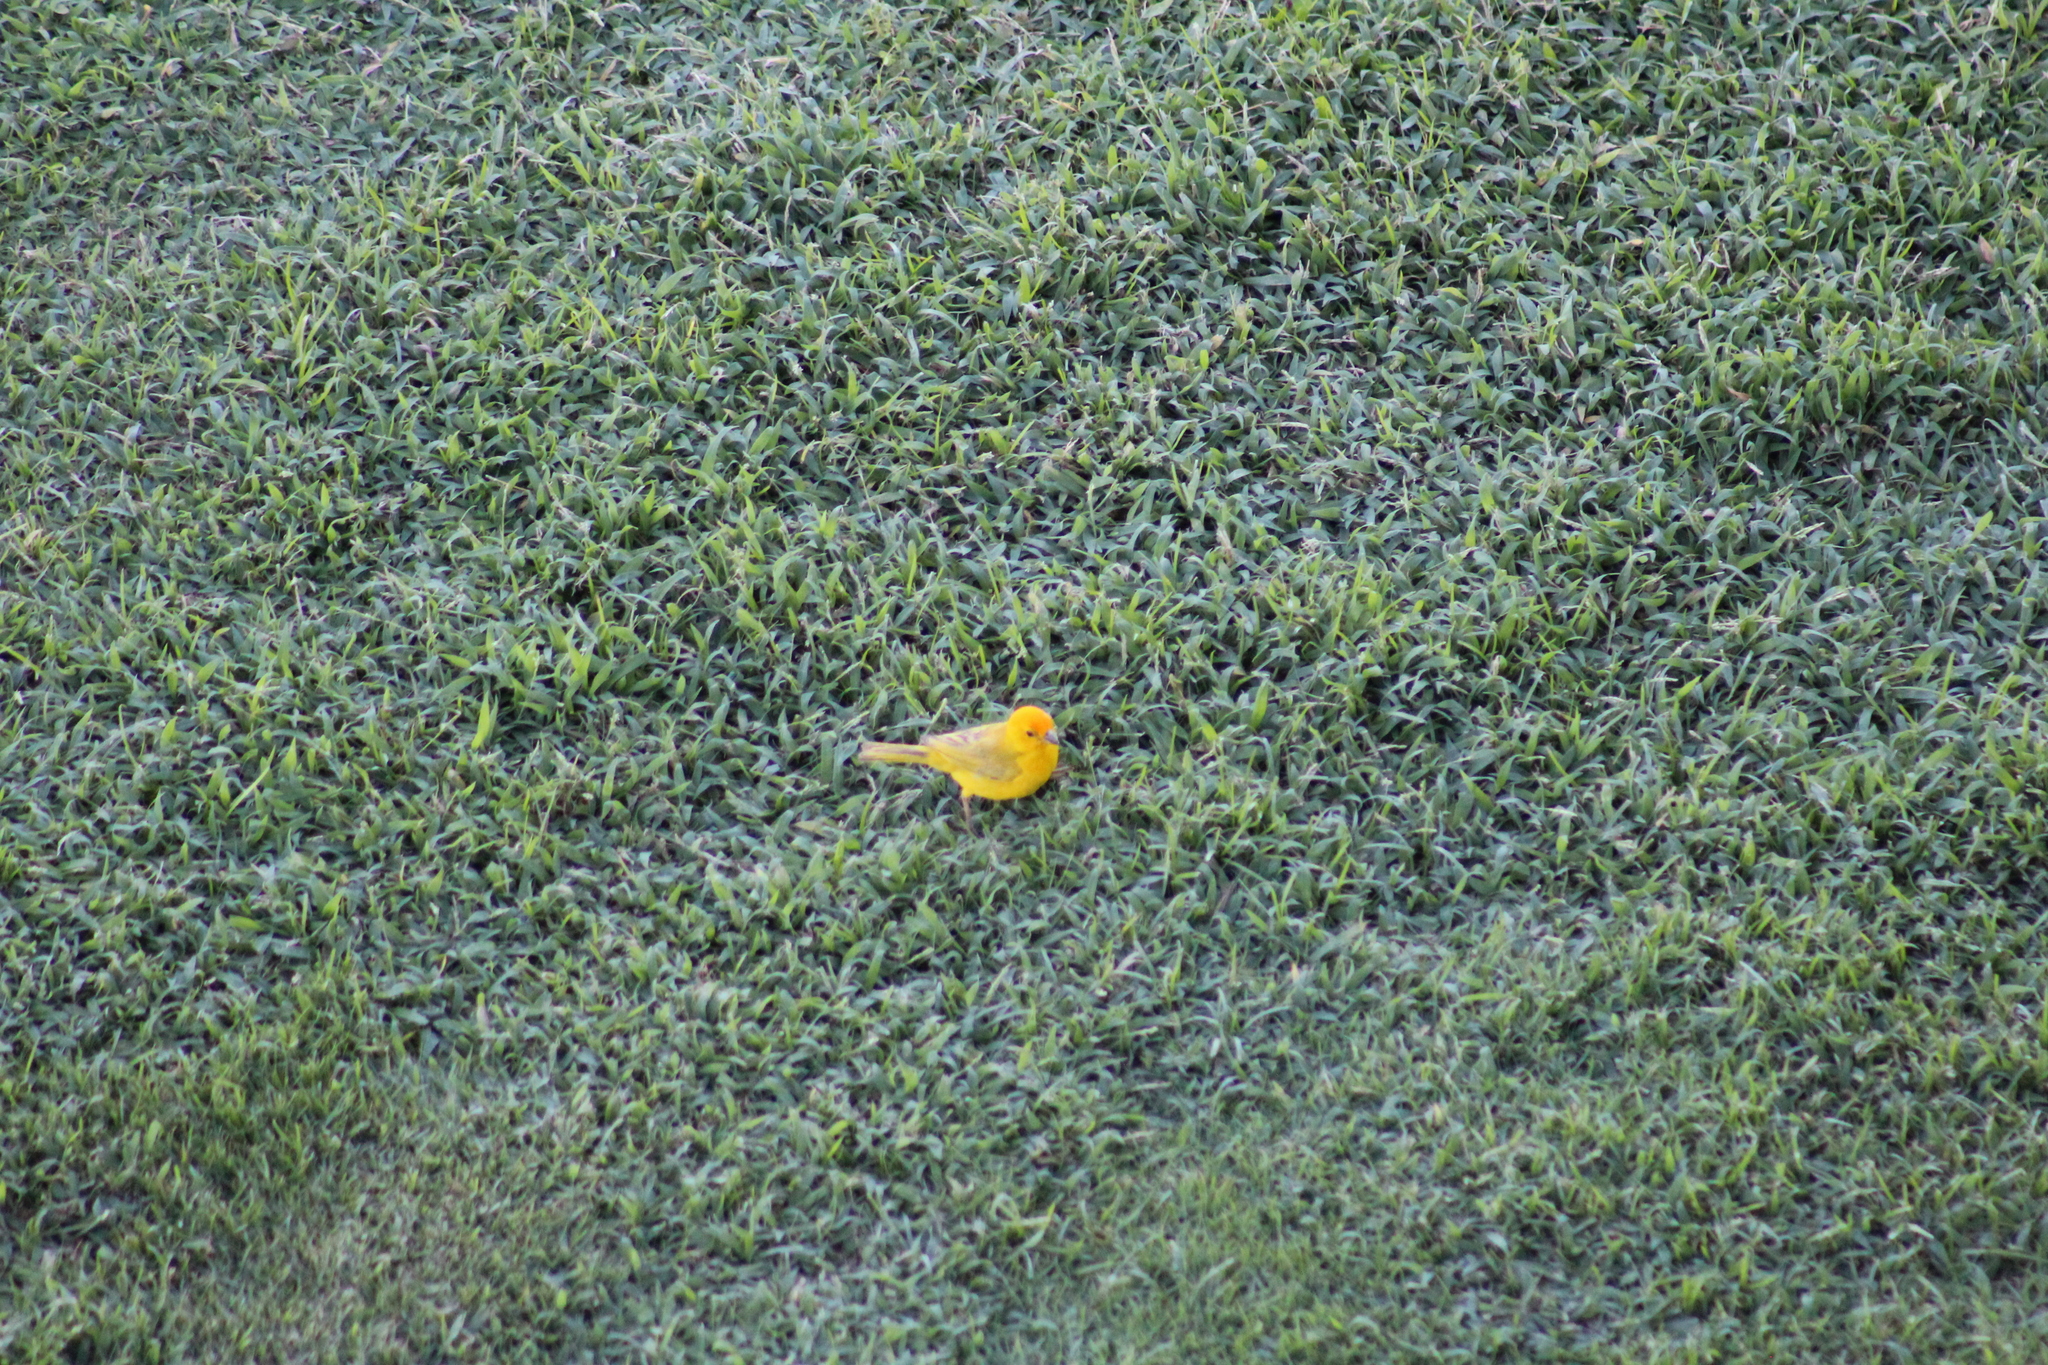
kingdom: Animalia
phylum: Chordata
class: Aves
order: Passeriformes
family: Thraupidae
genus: Sicalis
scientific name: Sicalis flaveola
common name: Saffron finch
